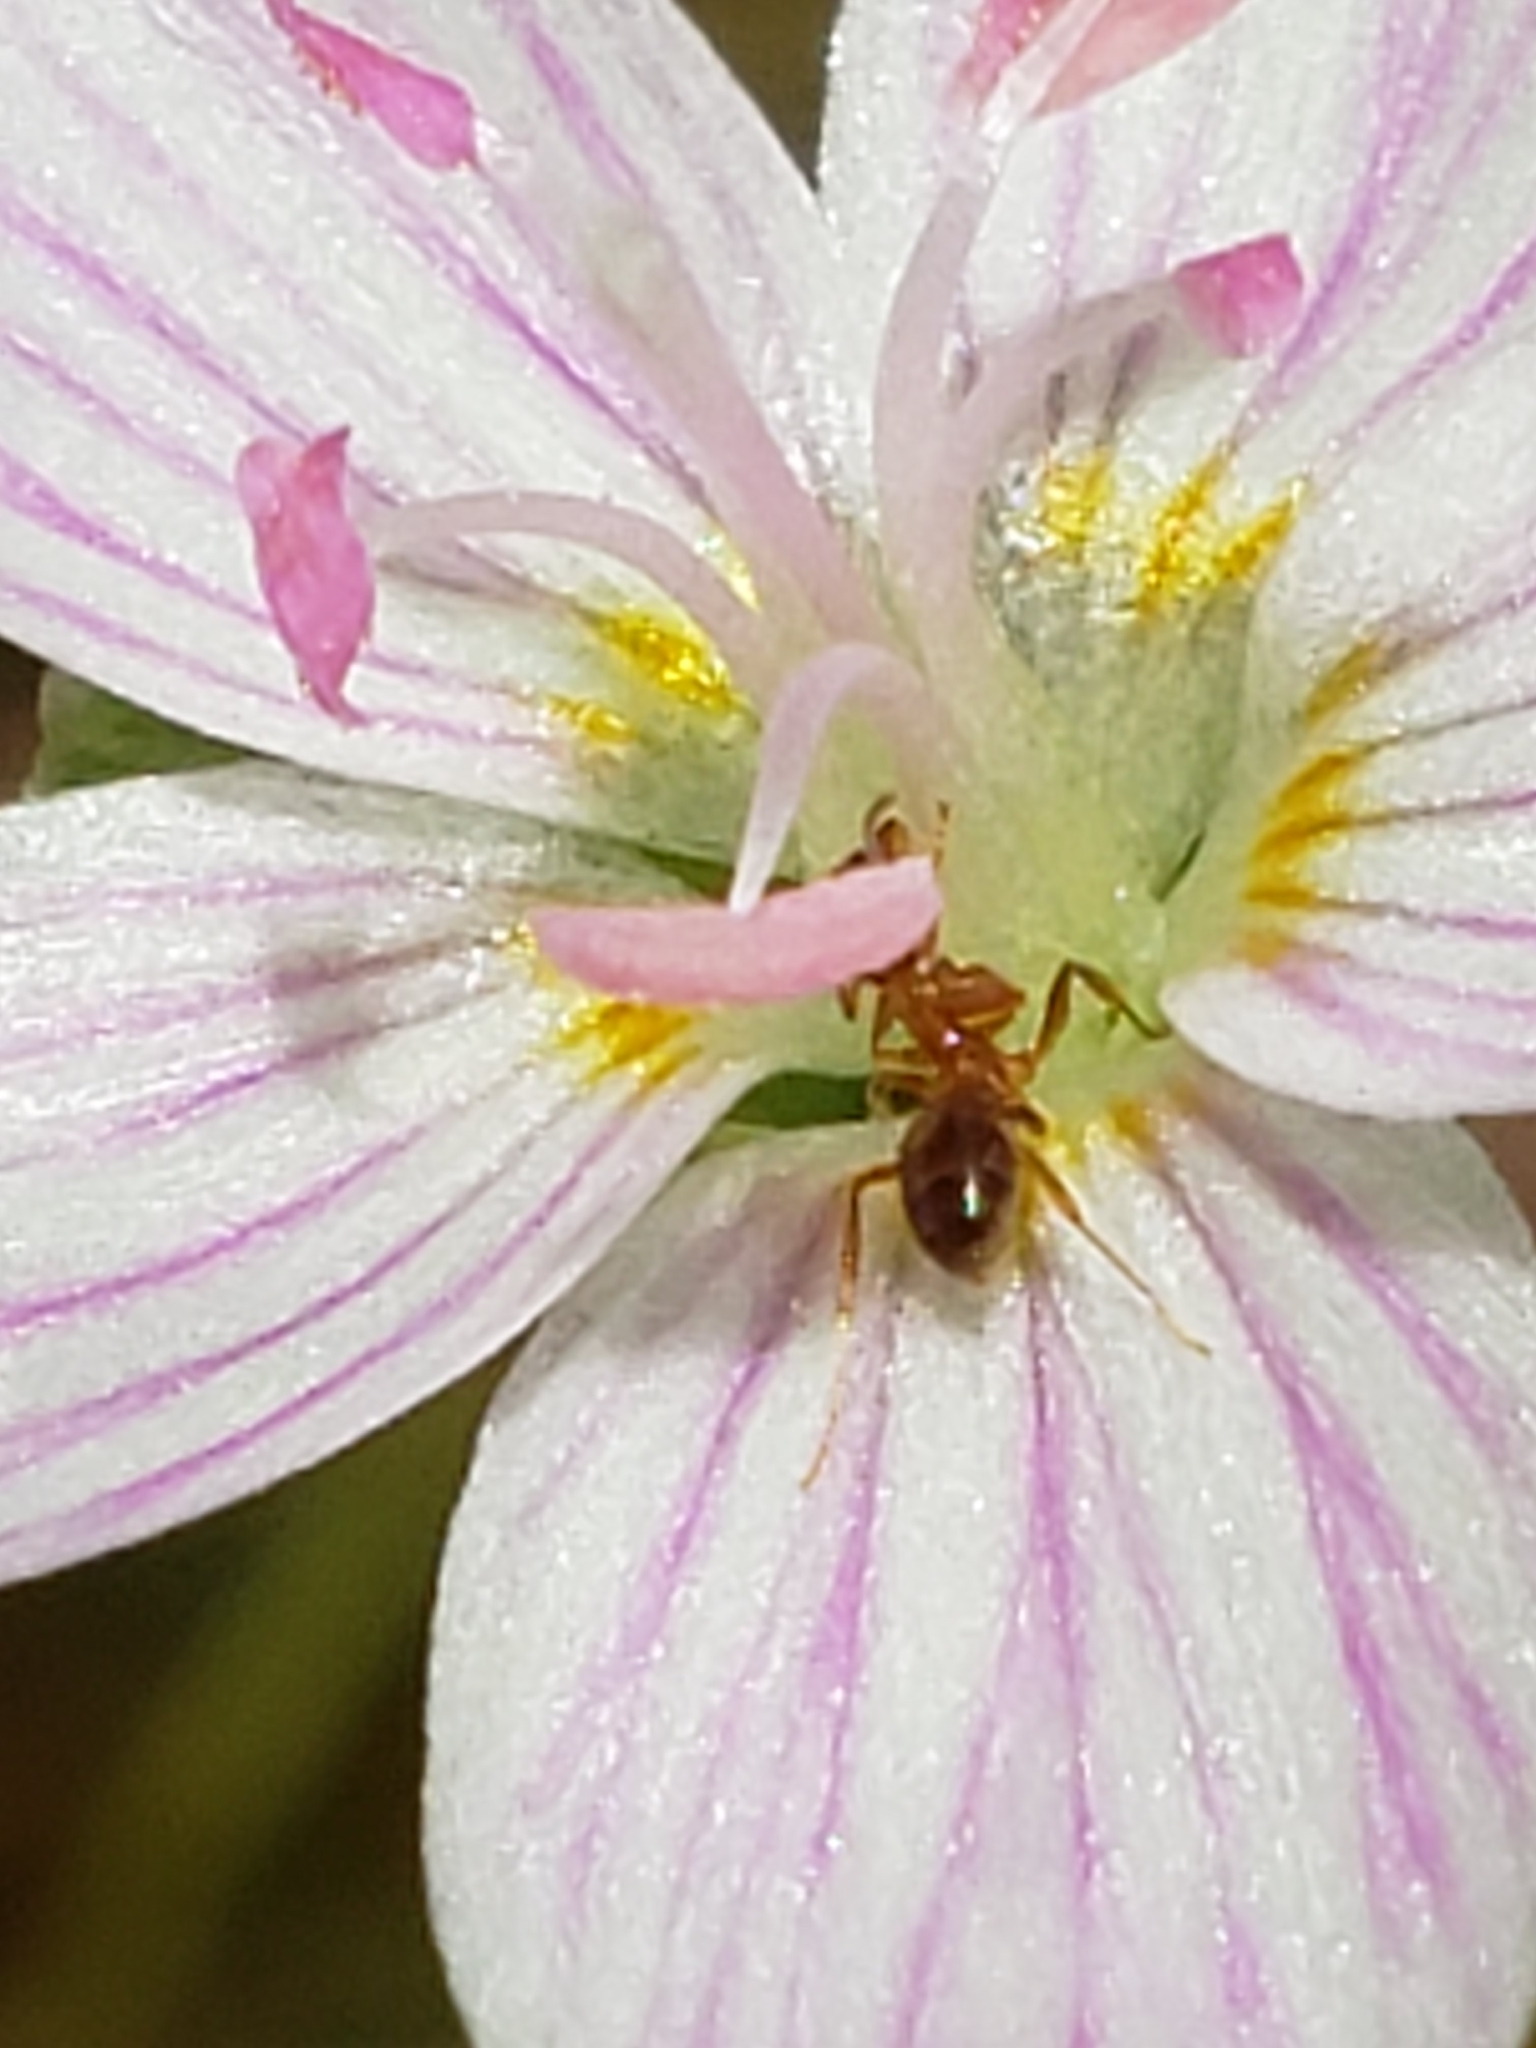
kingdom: Animalia
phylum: Arthropoda
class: Insecta
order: Hymenoptera
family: Formicidae
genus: Prenolepis
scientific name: Prenolepis imparis
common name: Small honey ant
